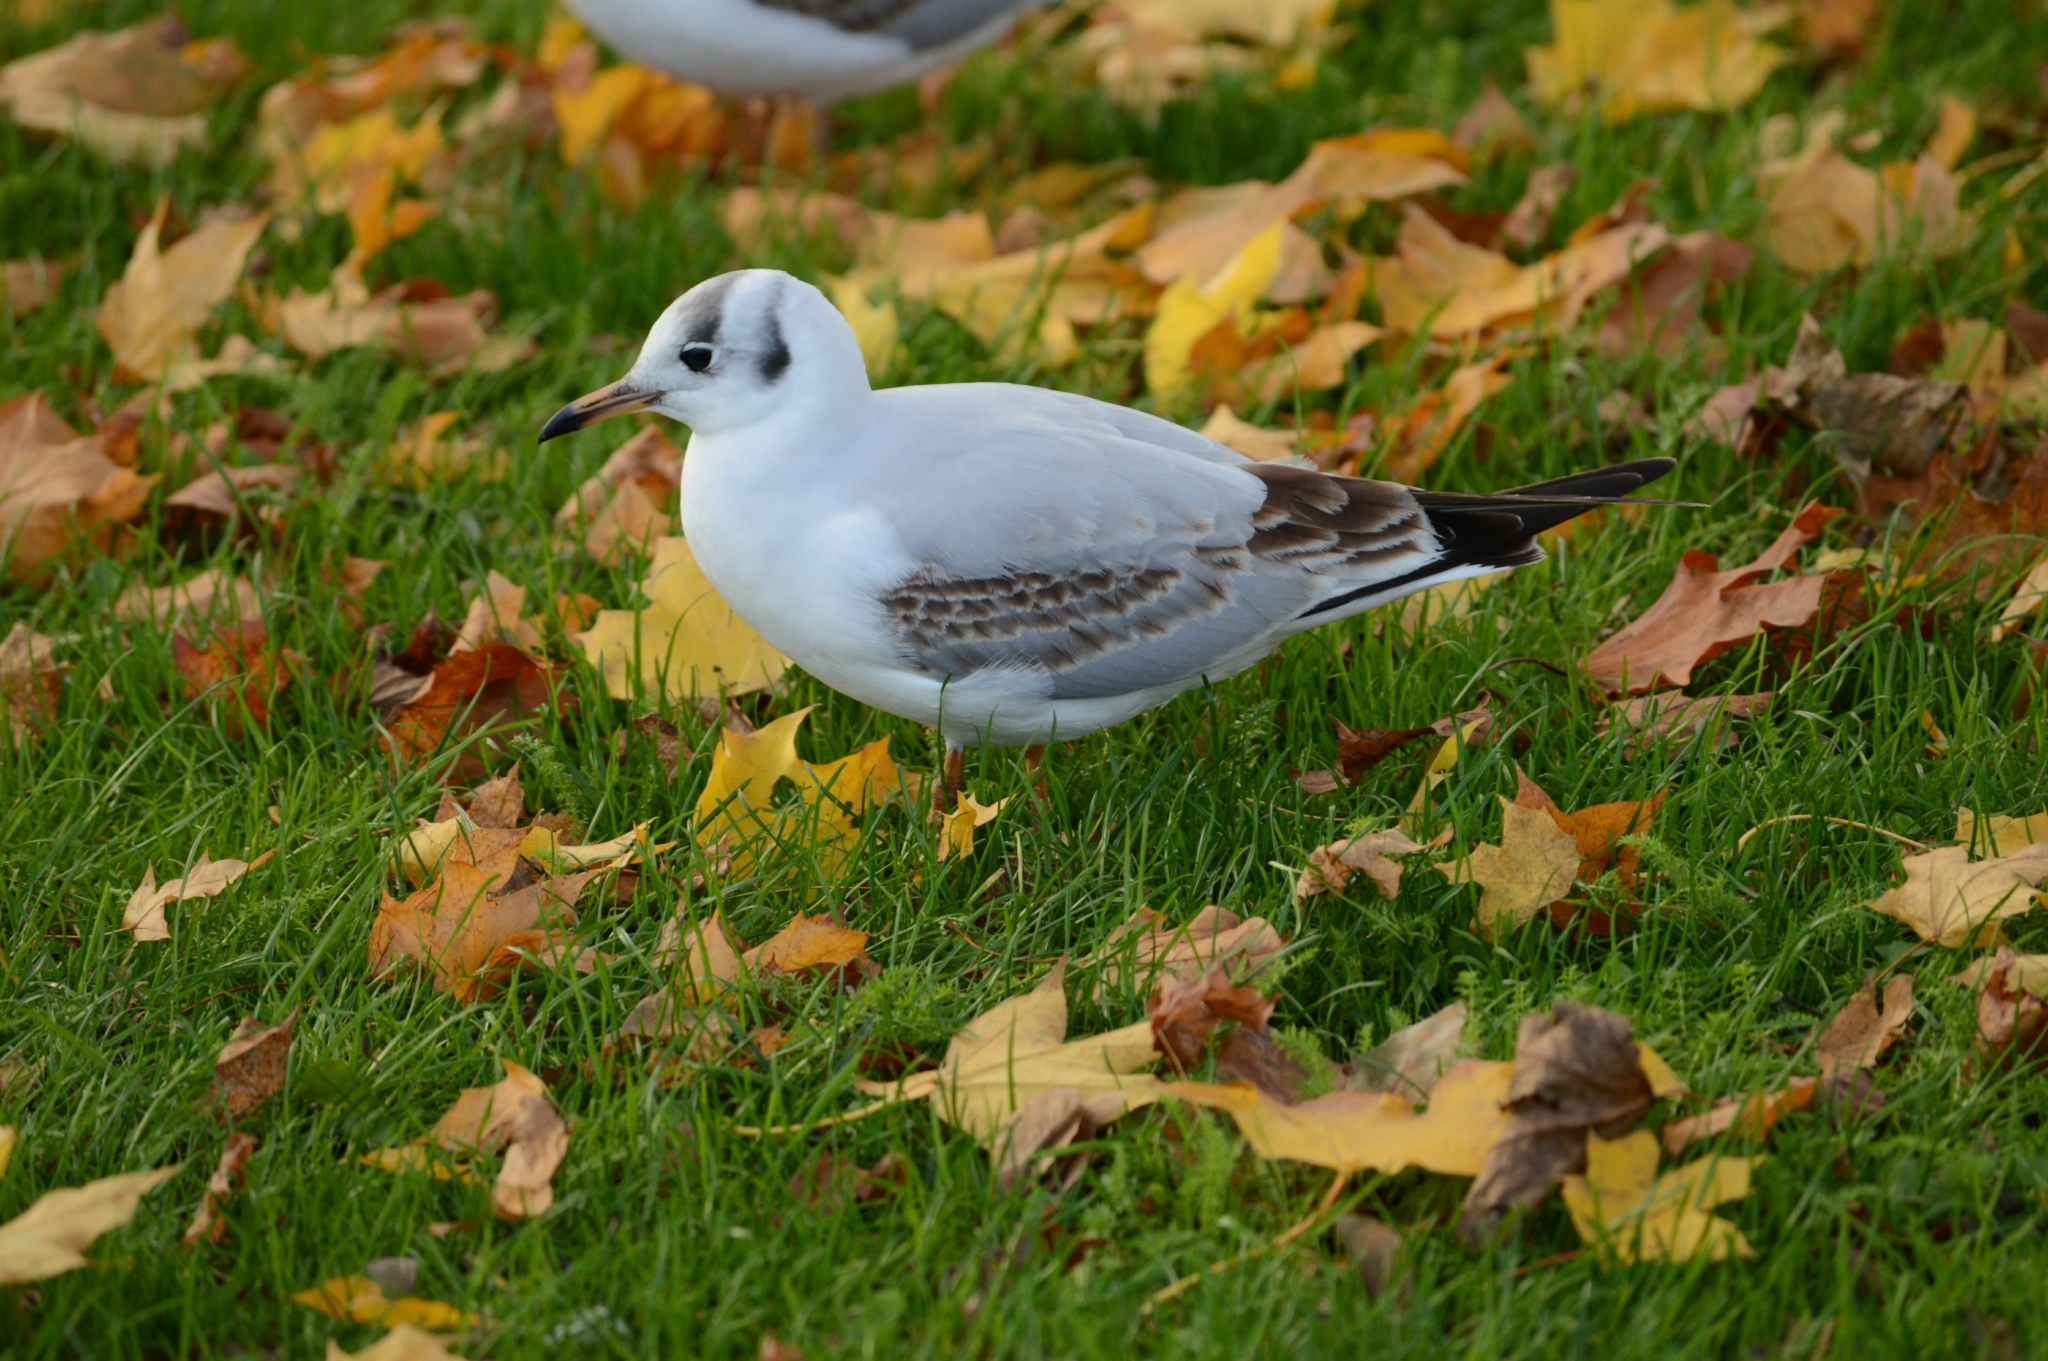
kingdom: Animalia
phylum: Chordata
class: Aves
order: Charadriiformes
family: Laridae
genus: Chroicocephalus
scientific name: Chroicocephalus ridibundus
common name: Black-headed gull
